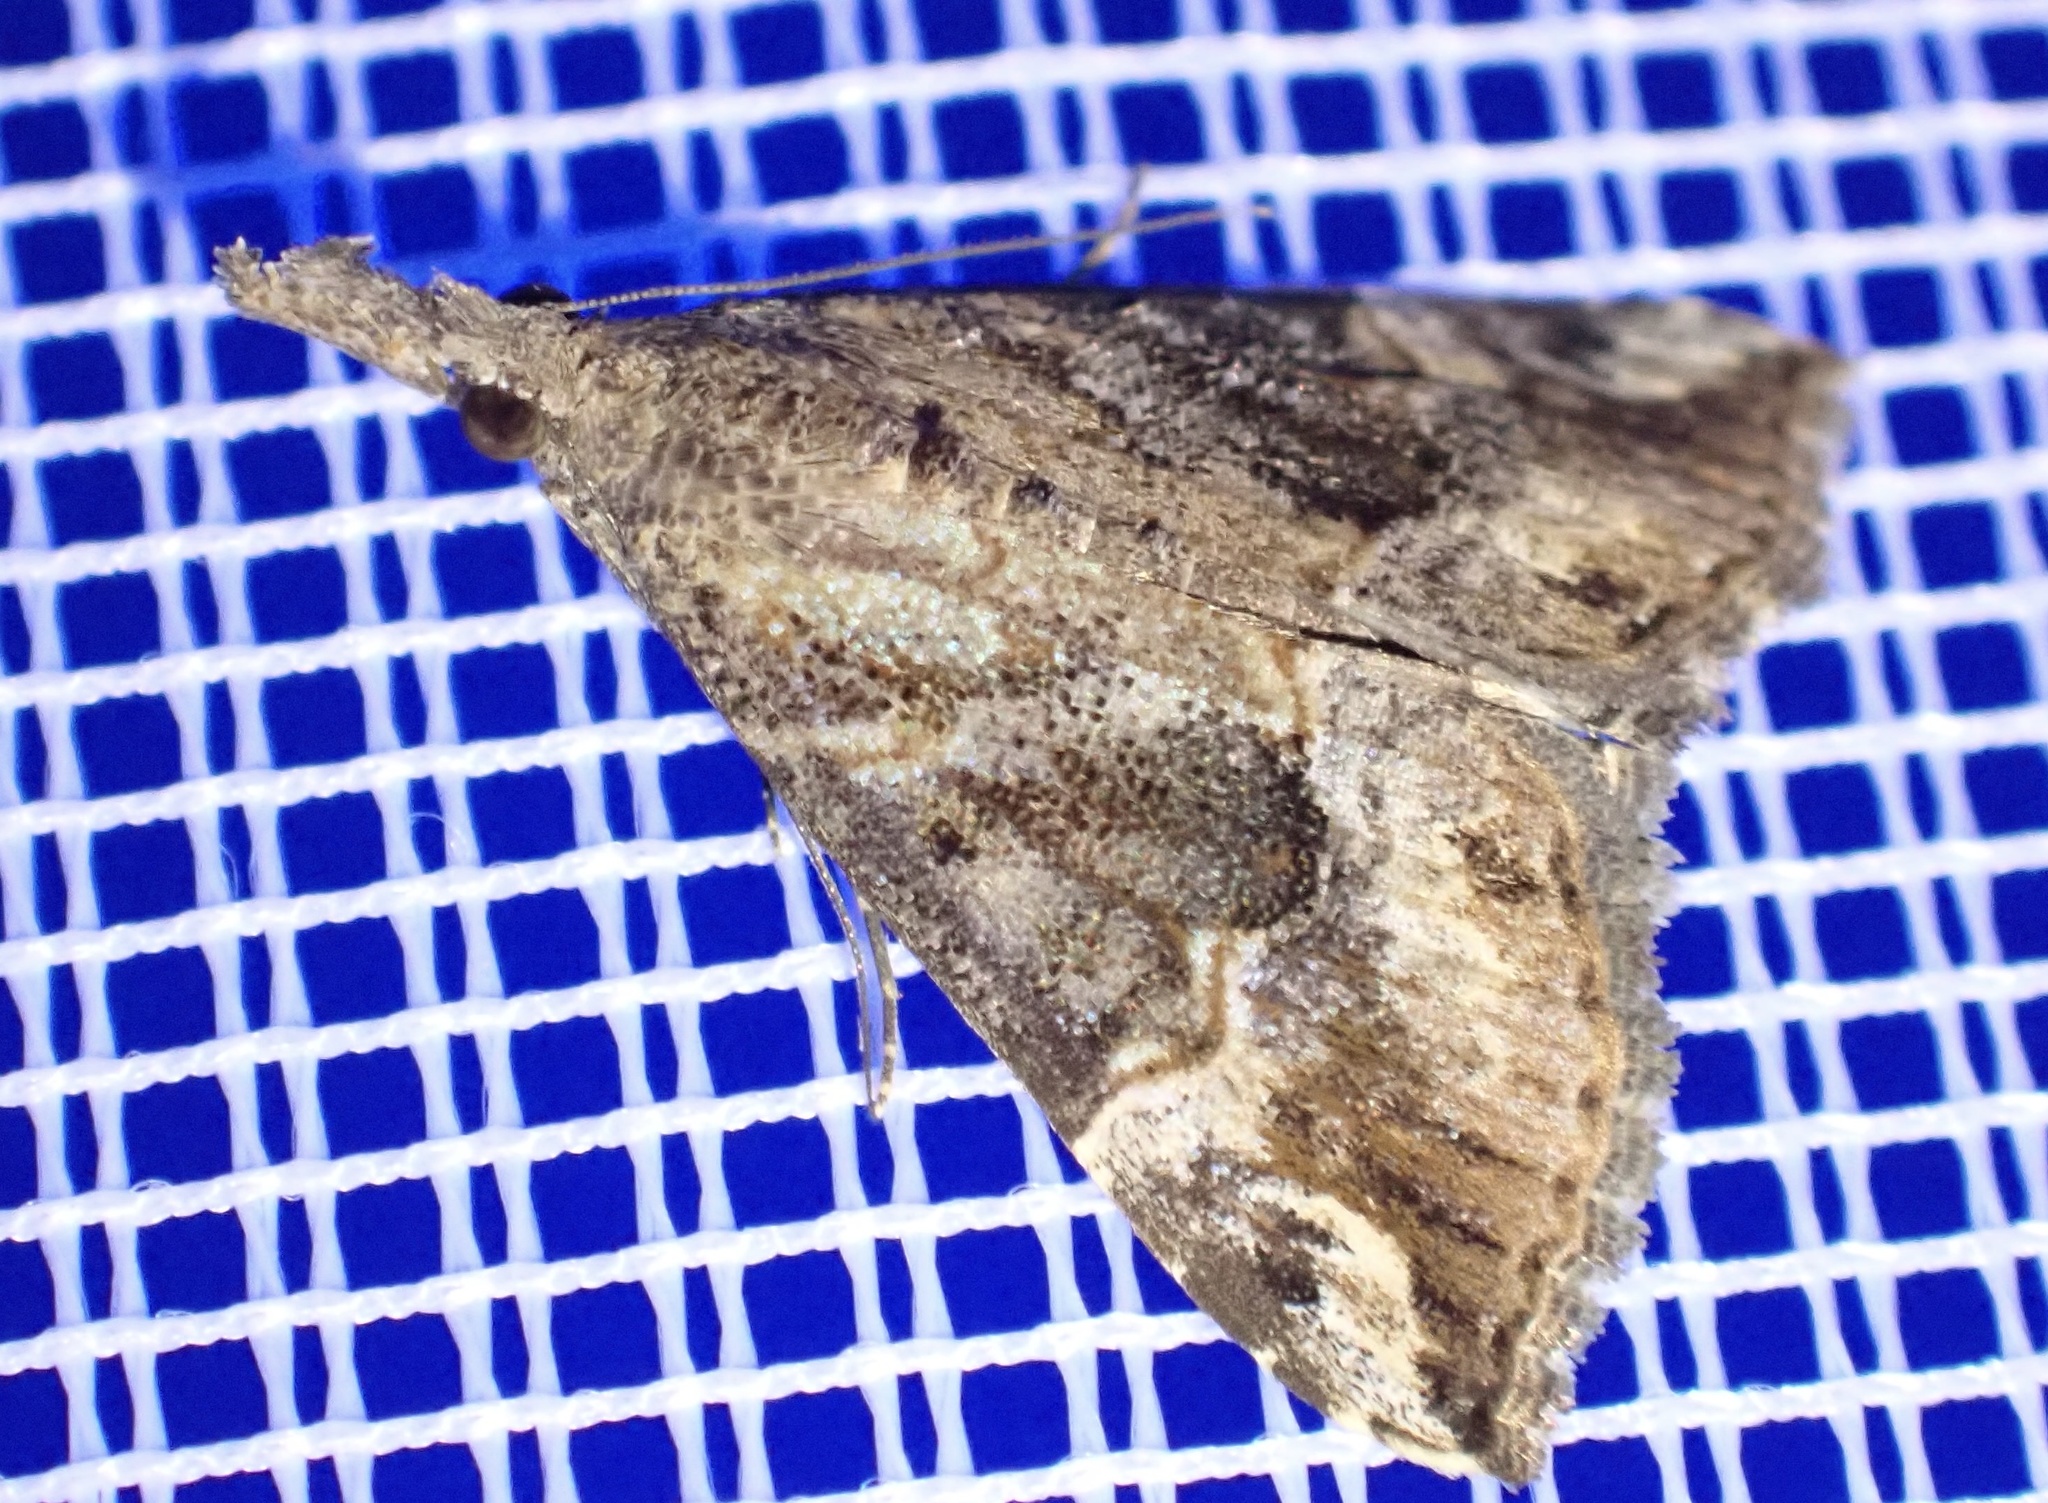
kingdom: Animalia
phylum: Arthropoda
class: Insecta
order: Lepidoptera
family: Erebidae
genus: Hypena
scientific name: Hypena commixtalis
